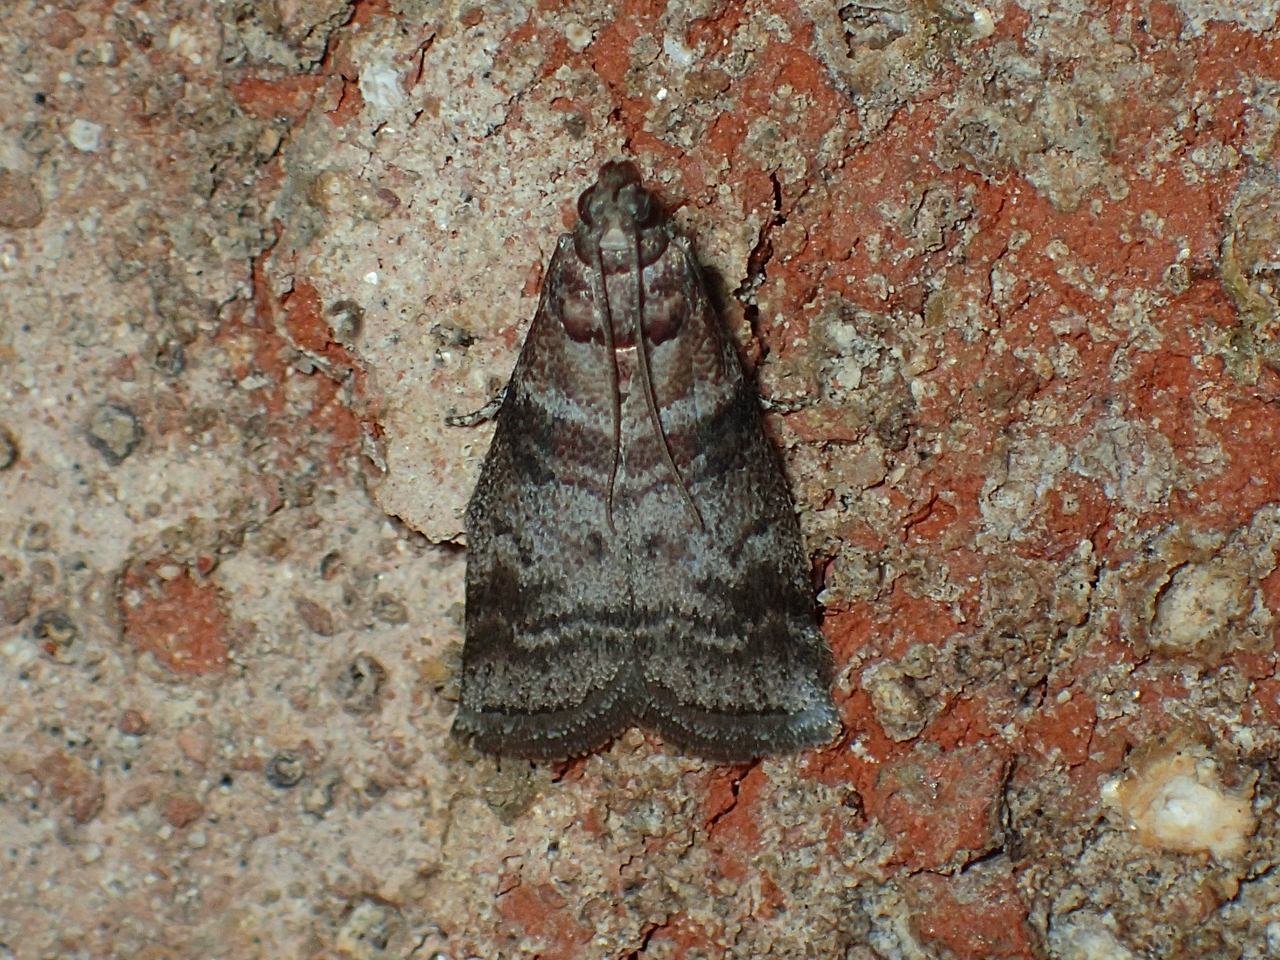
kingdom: Animalia
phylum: Arthropoda
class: Insecta
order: Lepidoptera
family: Pyralidae
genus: Sciota
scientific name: Sciota uvinella
